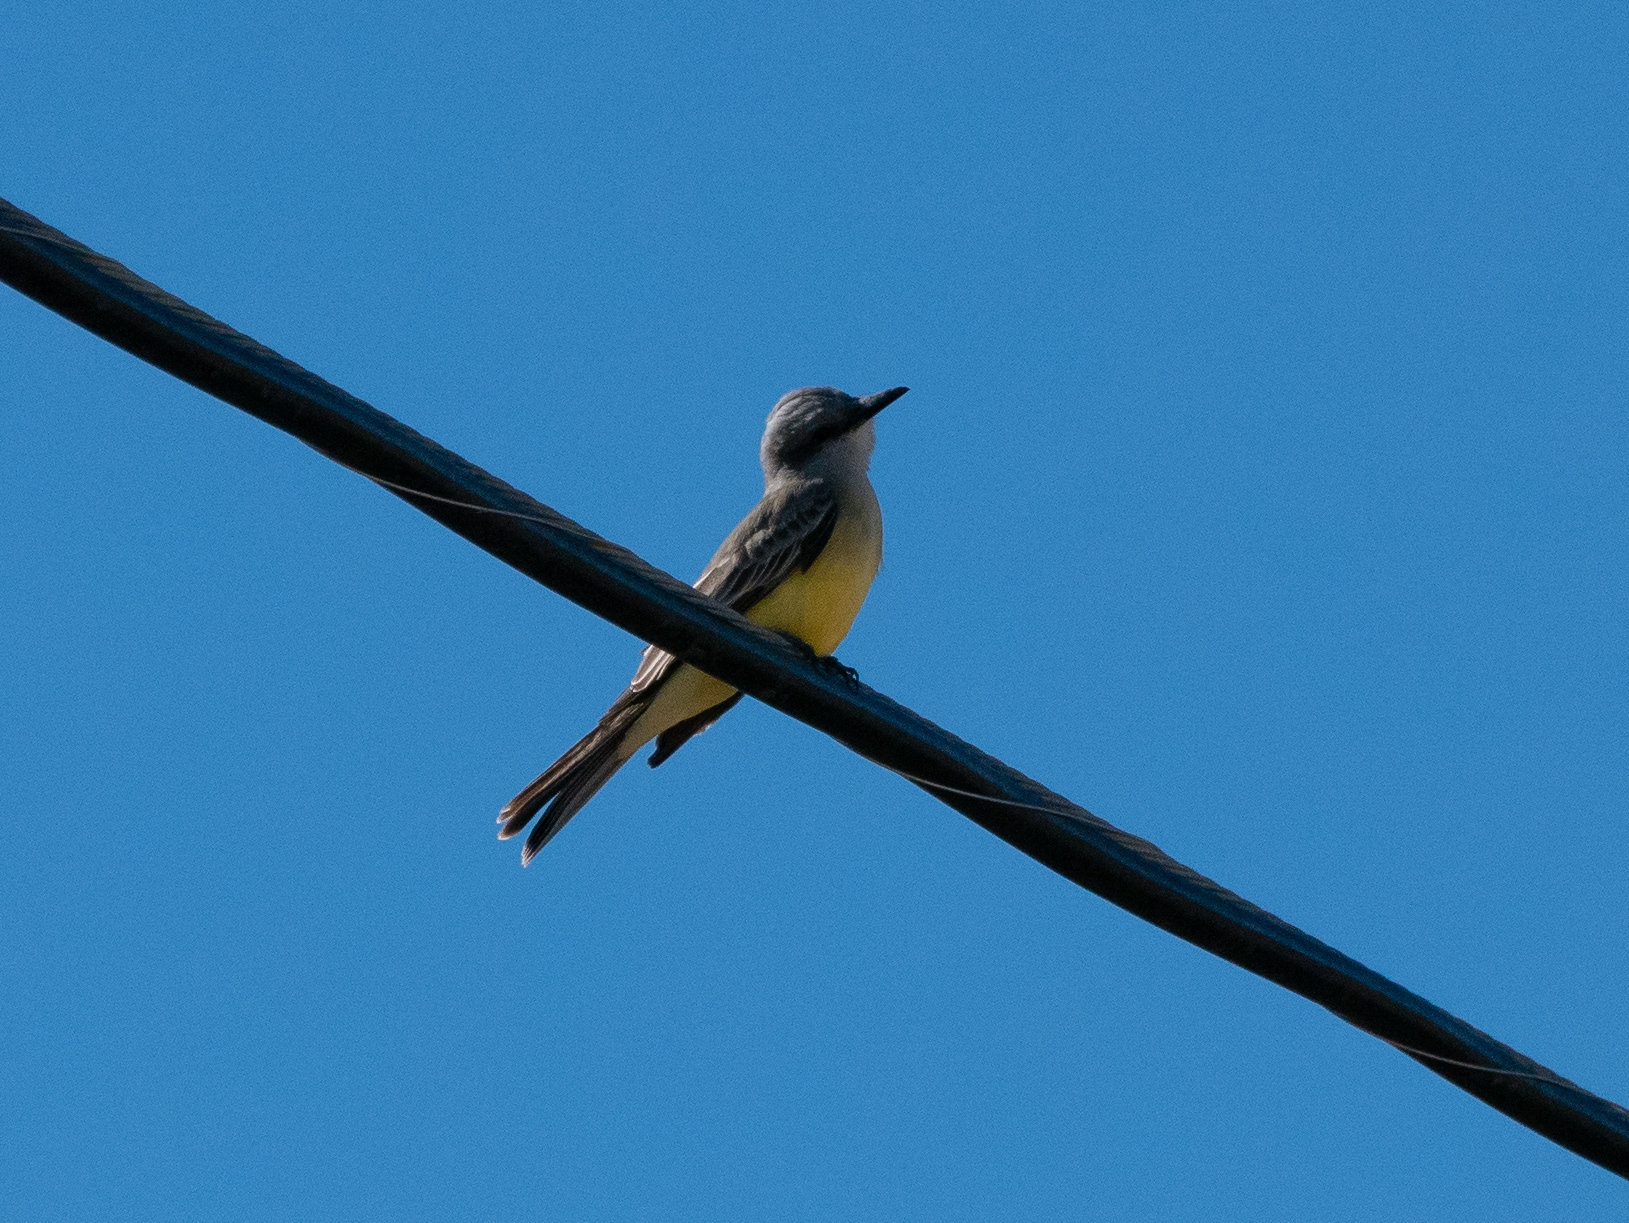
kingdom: Animalia
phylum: Chordata
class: Aves
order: Passeriformes
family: Tyrannidae
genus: Tyrannus
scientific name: Tyrannus vociferans
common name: Cassin's kingbird
